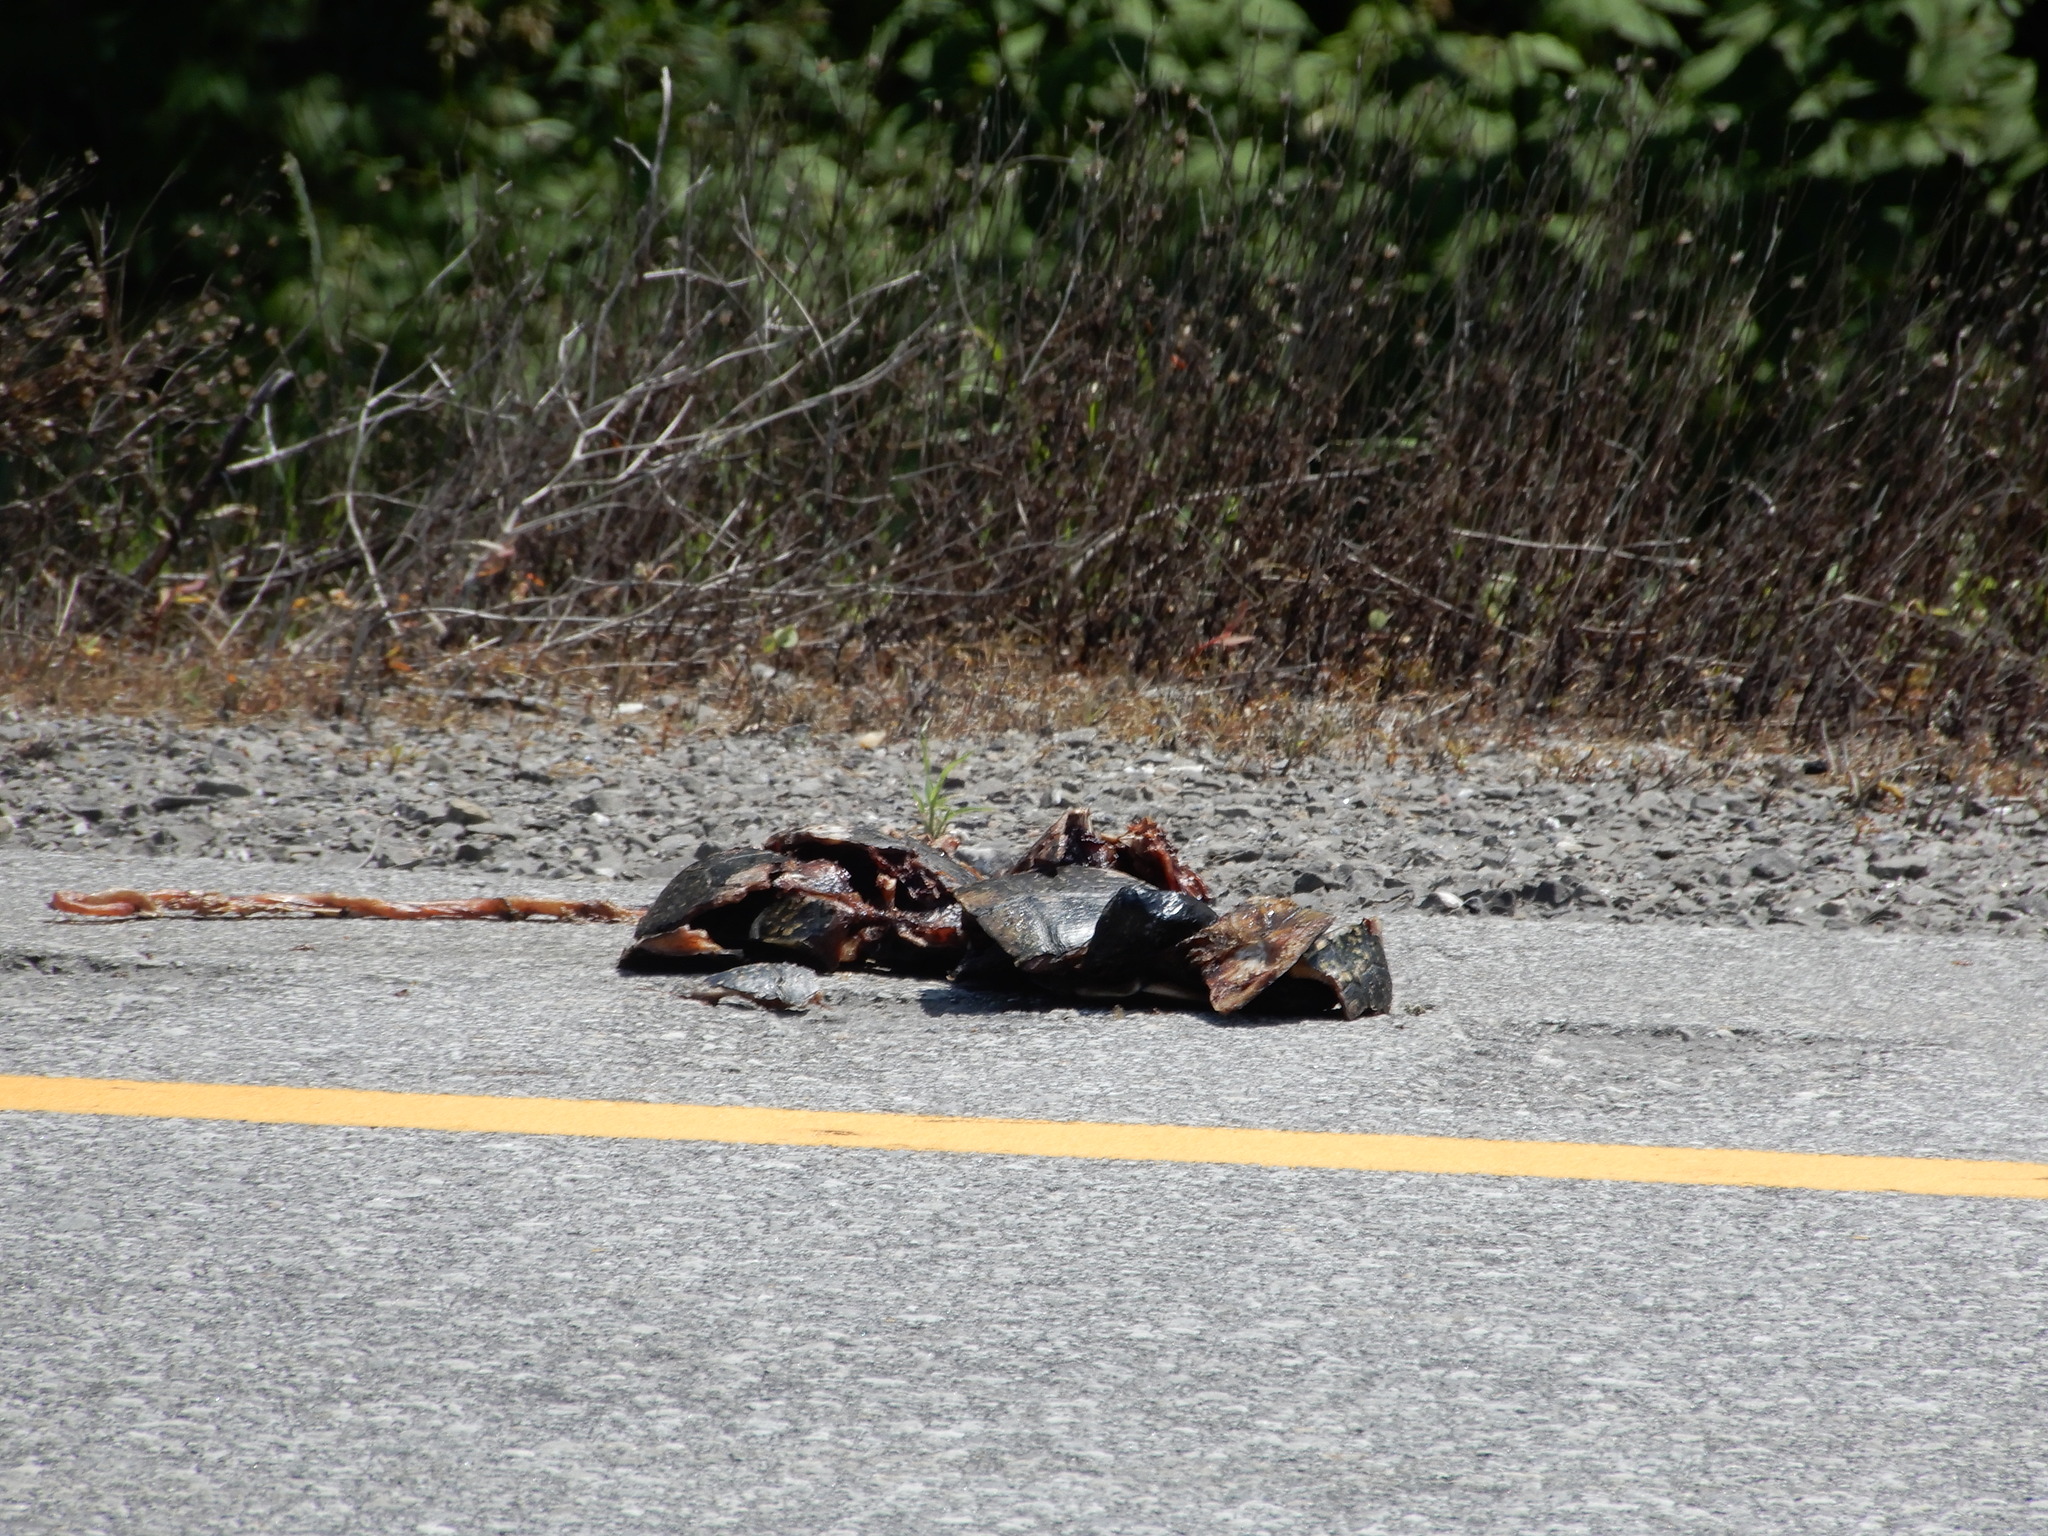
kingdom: Animalia
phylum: Chordata
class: Testudines
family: Emydidae
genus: Emys
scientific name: Emys blandingii
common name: Blanding's turtle
